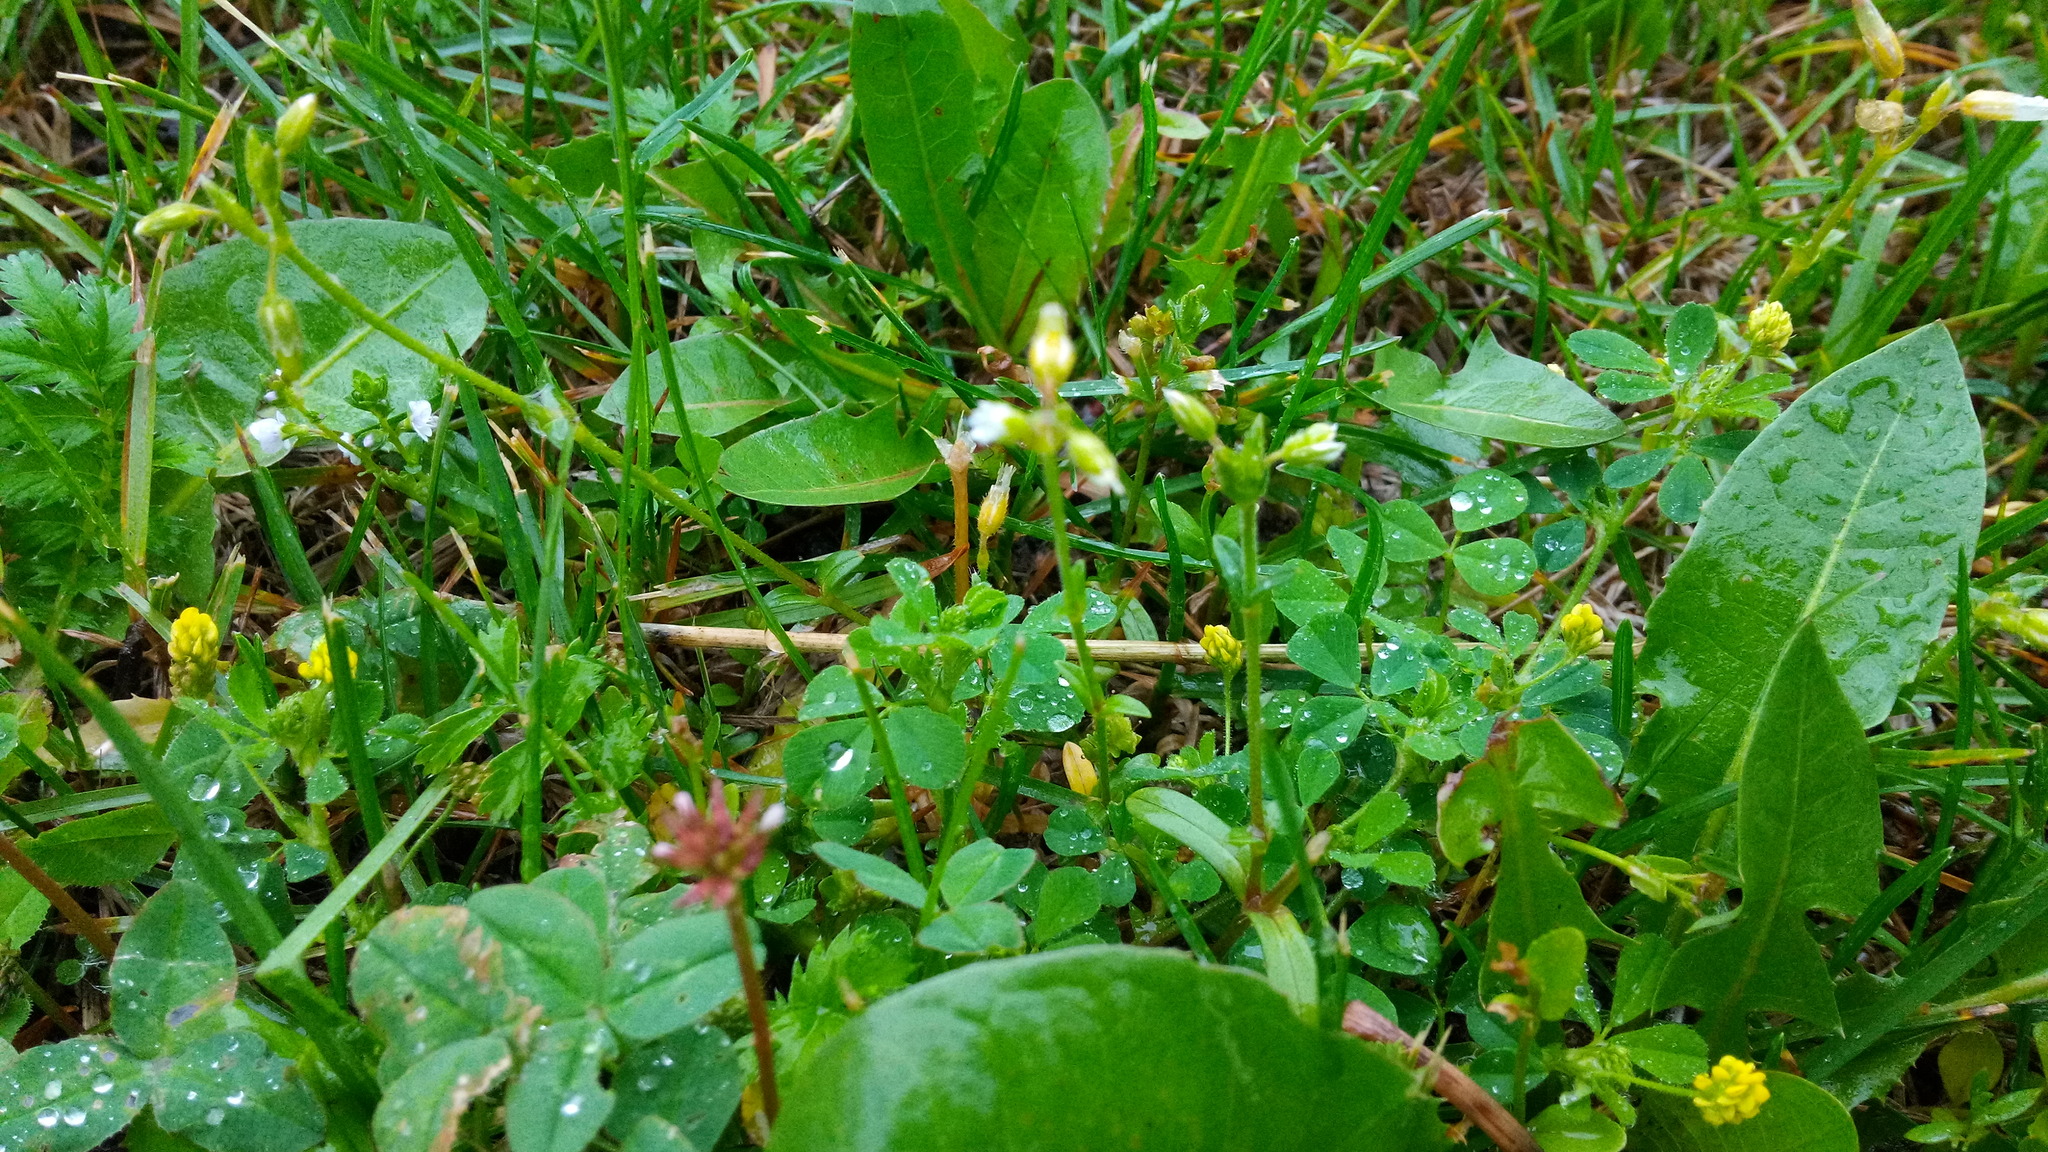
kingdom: Plantae
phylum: Tracheophyta
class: Magnoliopsida
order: Caryophyllales
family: Caryophyllaceae
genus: Cerastium
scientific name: Cerastium holosteoides
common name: Big chickweed
